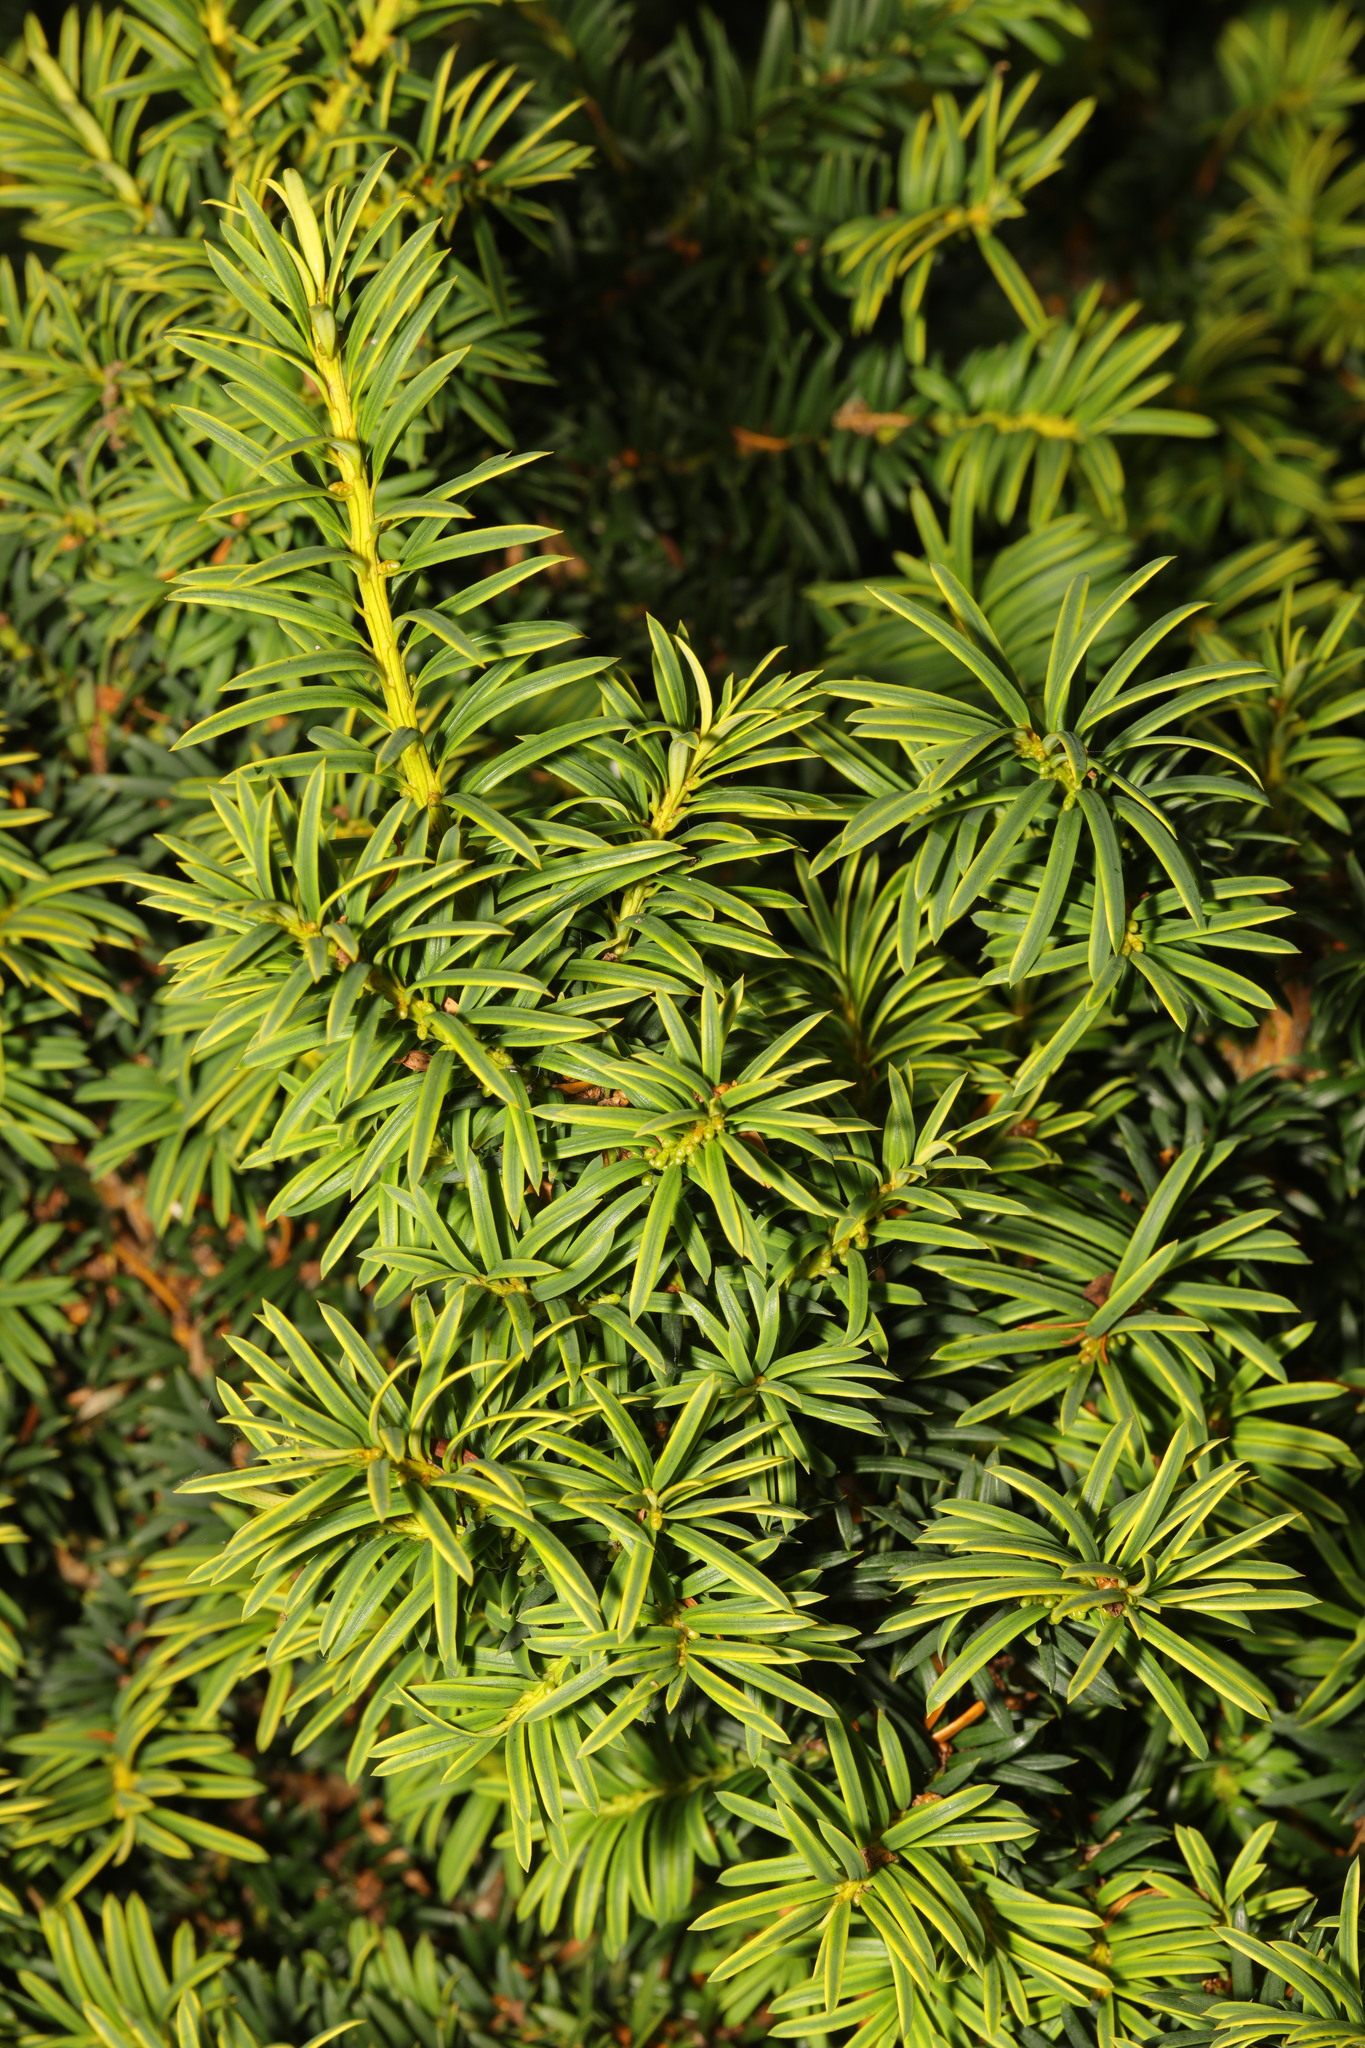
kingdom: Plantae
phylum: Tracheophyta
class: Pinopsida
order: Pinales
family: Taxaceae
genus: Taxus
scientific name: Taxus baccata
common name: Yew
